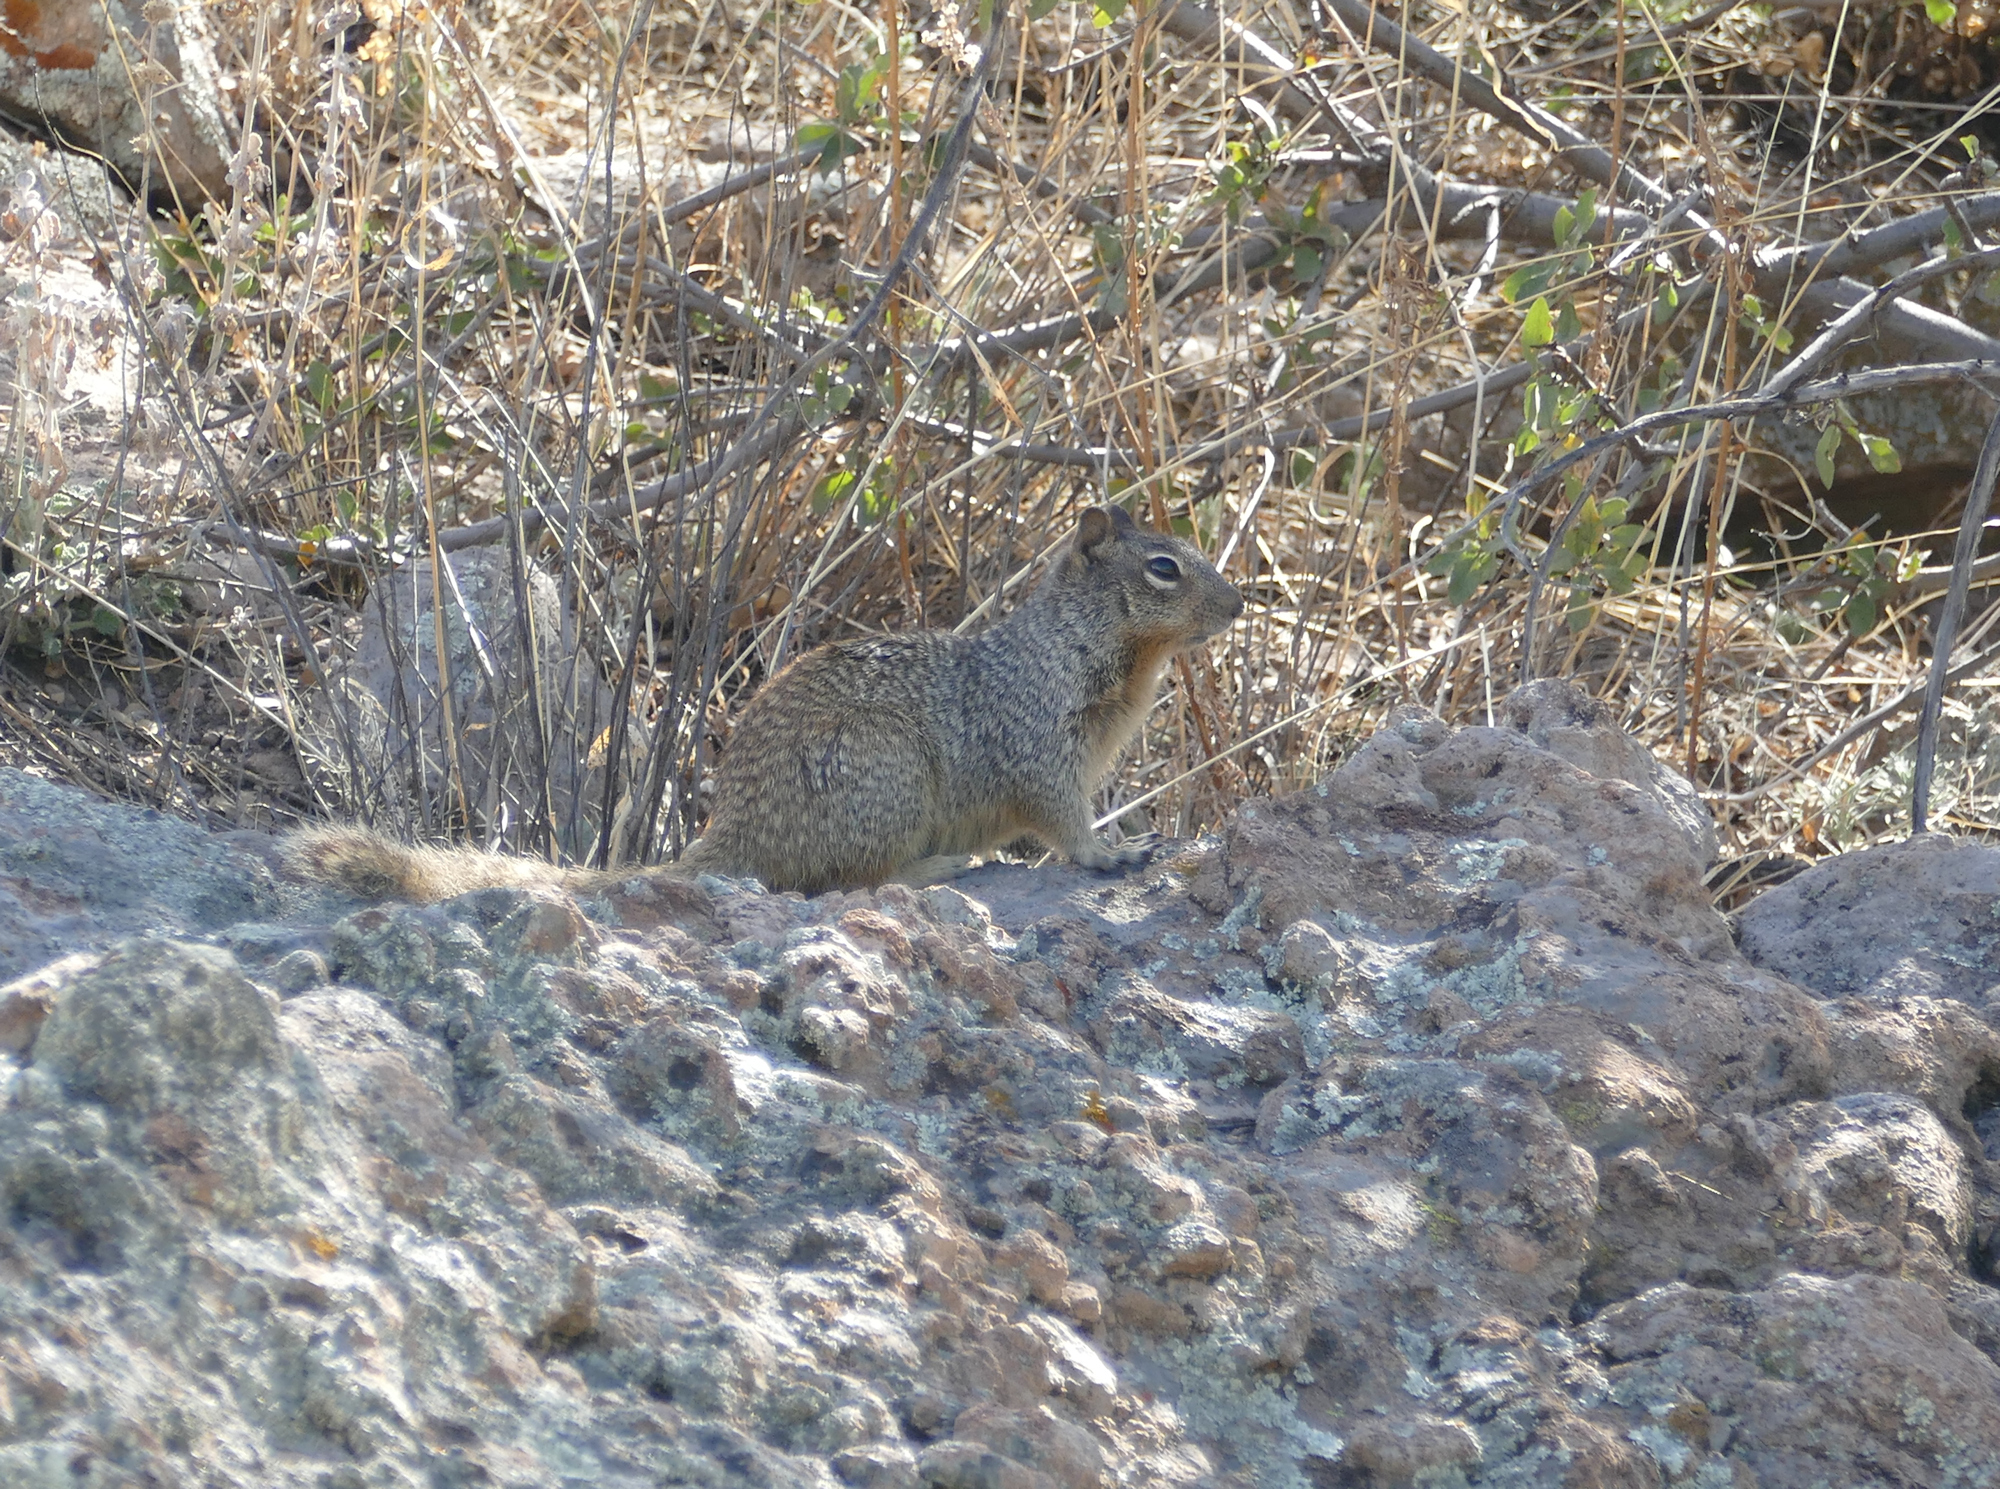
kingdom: Animalia
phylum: Chordata
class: Mammalia
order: Rodentia
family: Sciuridae
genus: Otospermophilus
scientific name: Otospermophilus variegatus
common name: Rock squirrel
